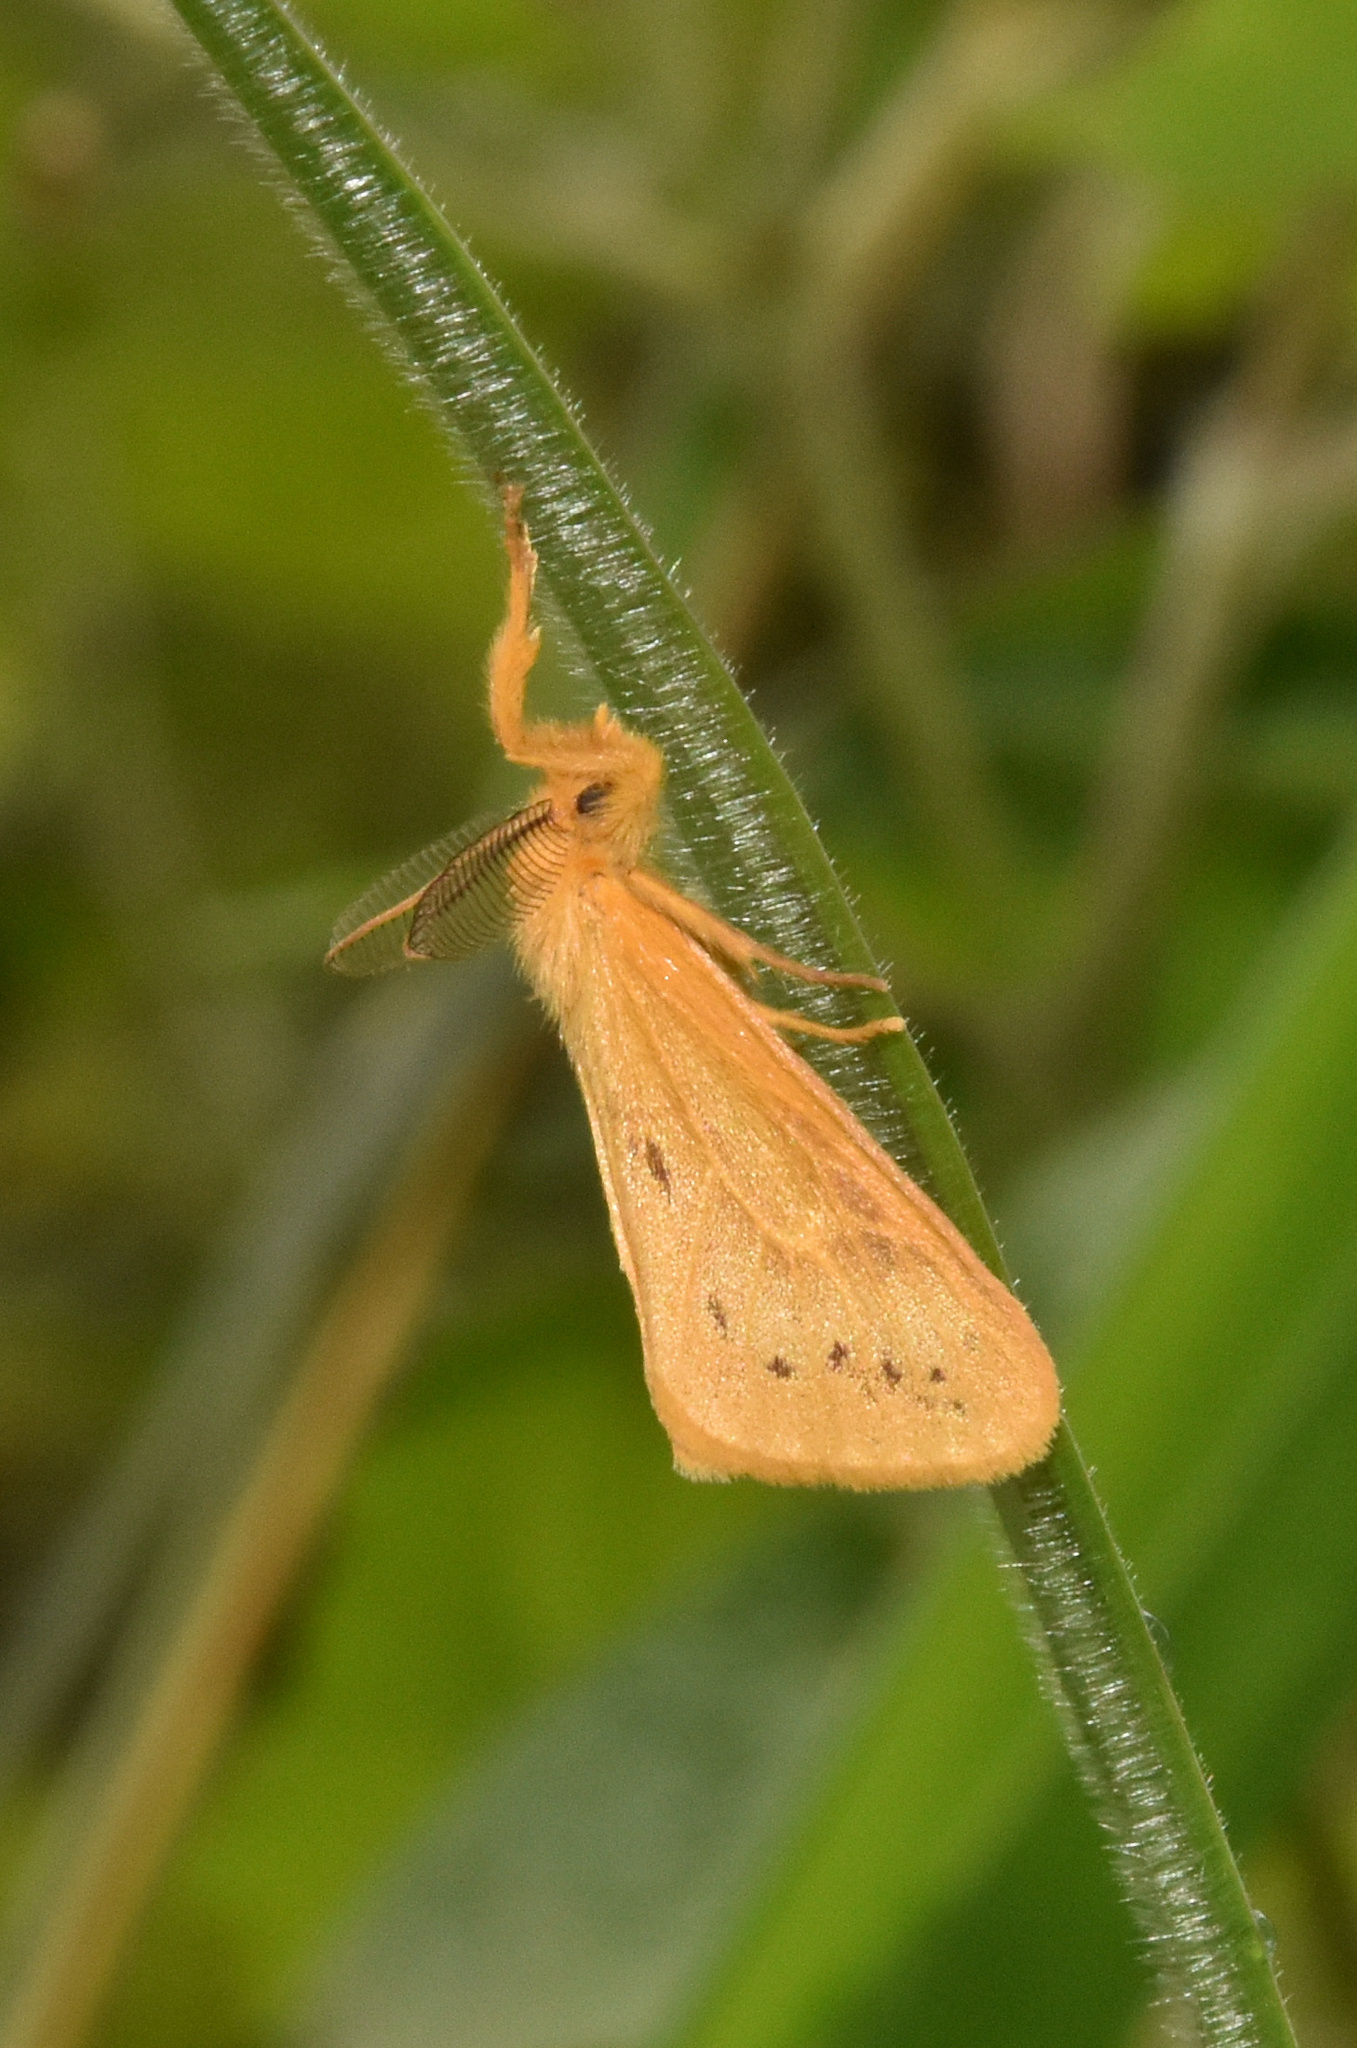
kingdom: Animalia
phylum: Arthropoda
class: Insecta
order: Lepidoptera
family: Erebidae
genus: Laelia
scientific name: Laelia punctulata
